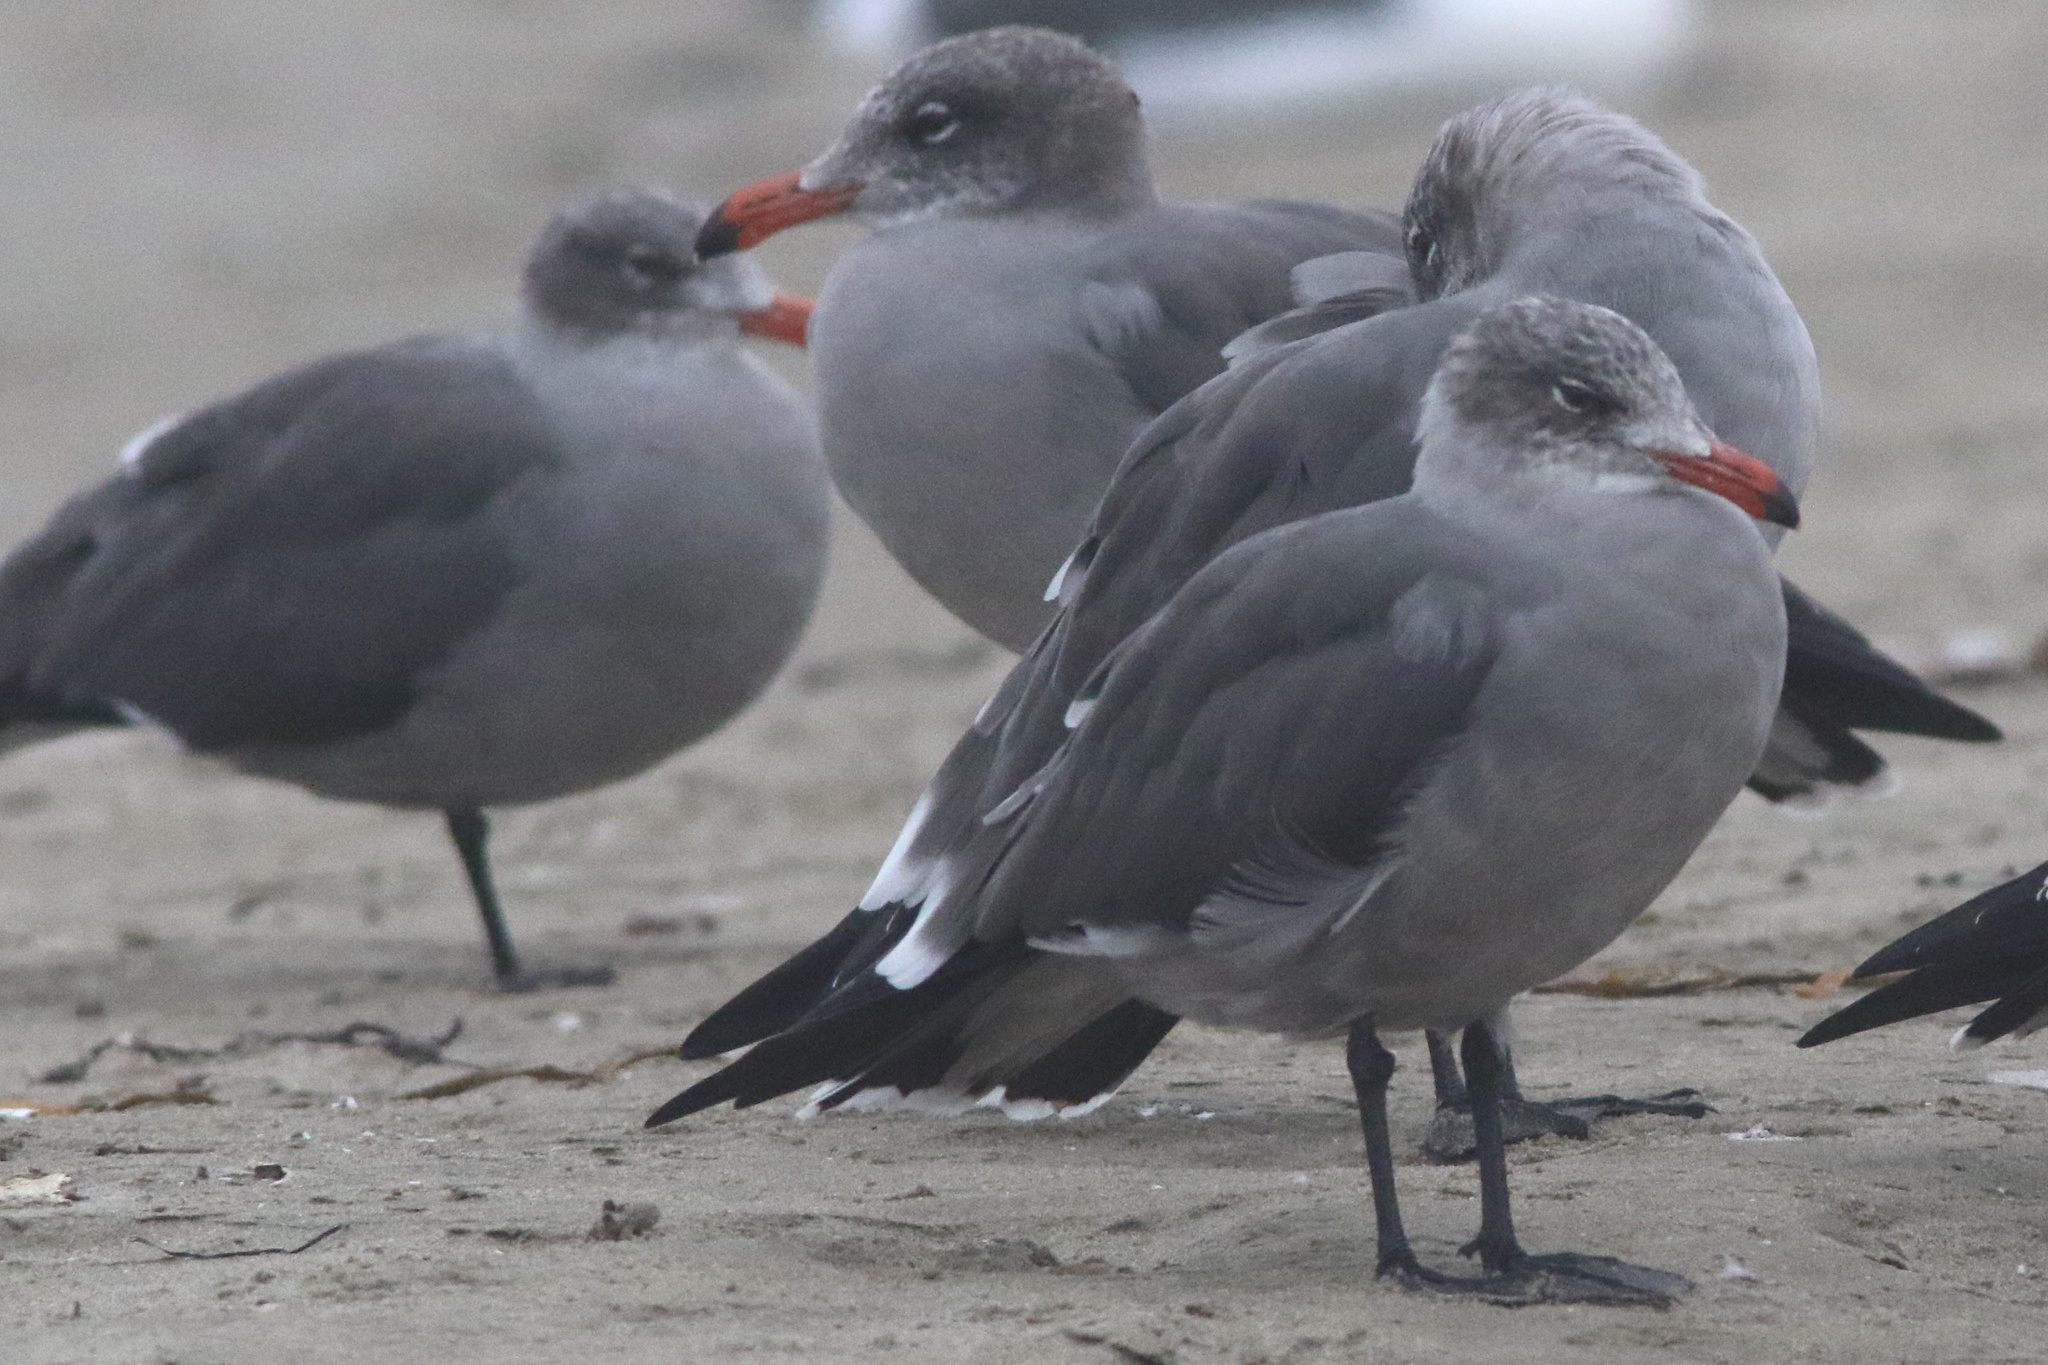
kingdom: Animalia
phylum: Chordata
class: Aves
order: Charadriiformes
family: Laridae
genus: Larus
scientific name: Larus heermanni
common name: Heermann's gull
